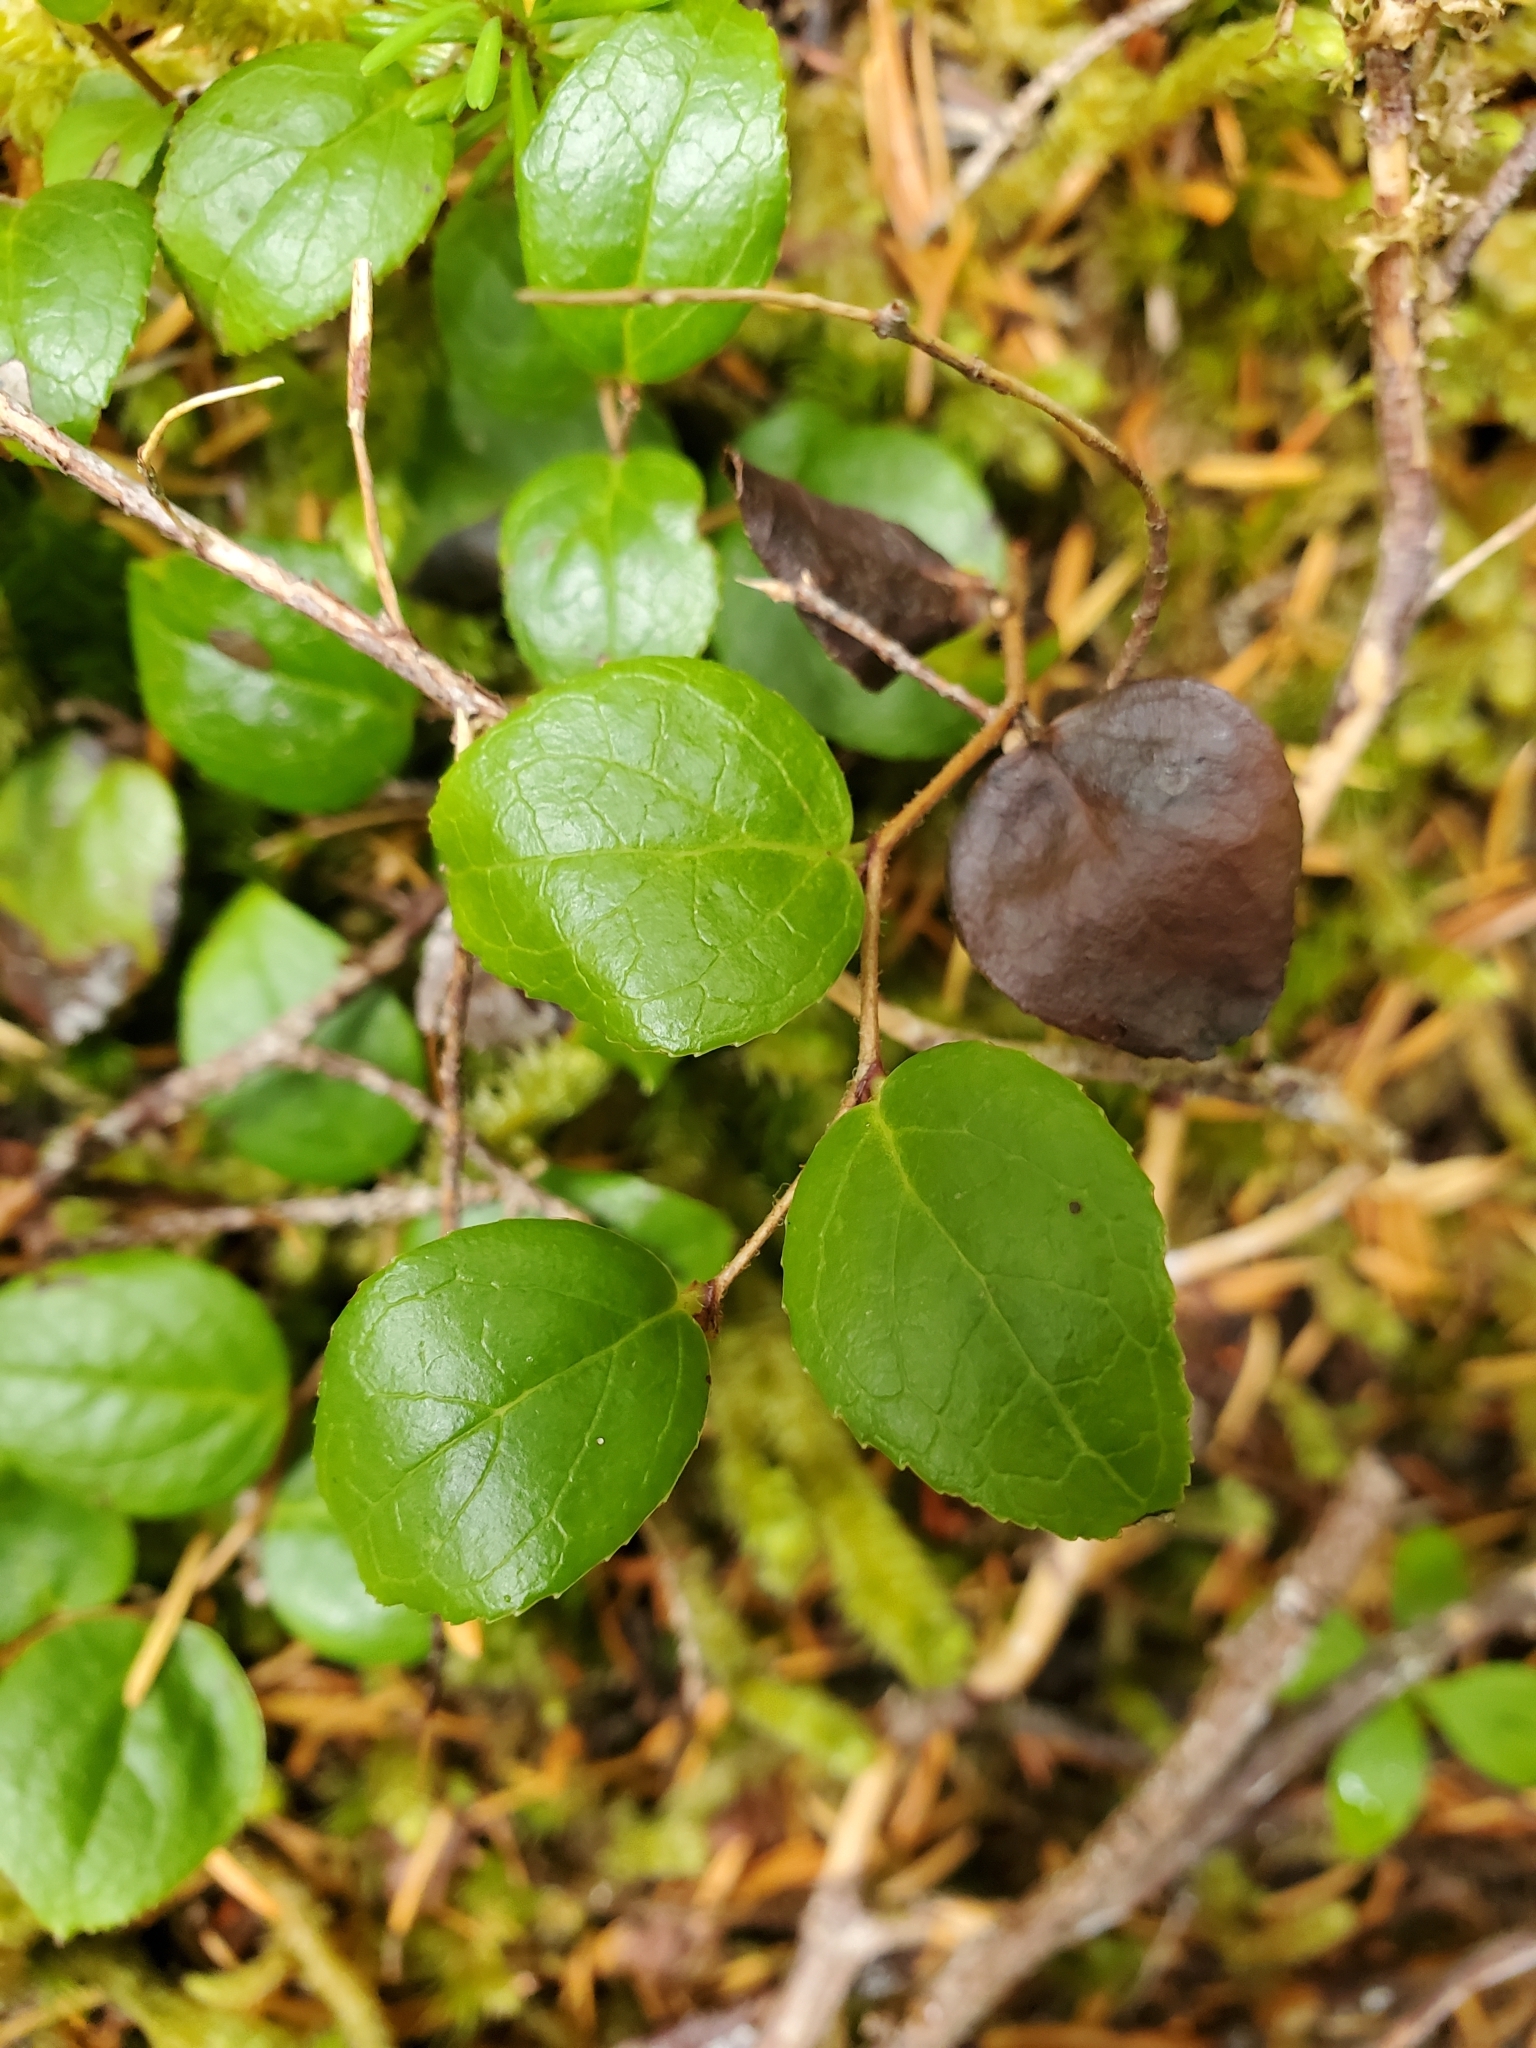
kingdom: Plantae
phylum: Tracheophyta
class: Magnoliopsida
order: Ericales
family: Ericaceae
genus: Gaultheria
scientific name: Gaultheria ovatifolia
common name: Oregon wintergreen
